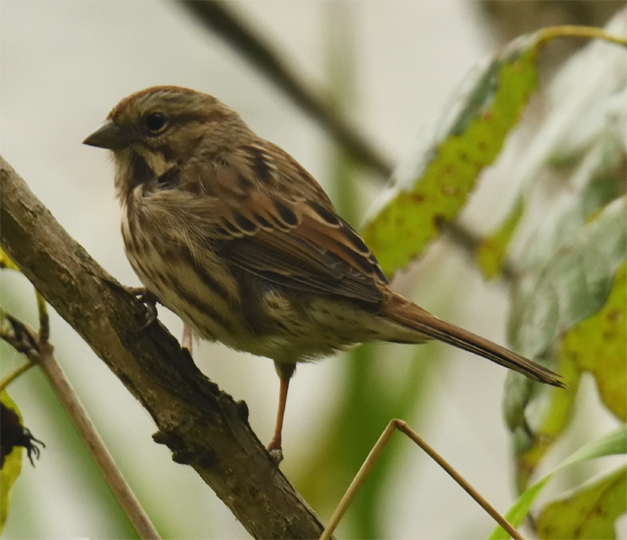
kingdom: Animalia
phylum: Chordata
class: Aves
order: Passeriformes
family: Passerellidae
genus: Melospiza
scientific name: Melospiza melodia
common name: Song sparrow
